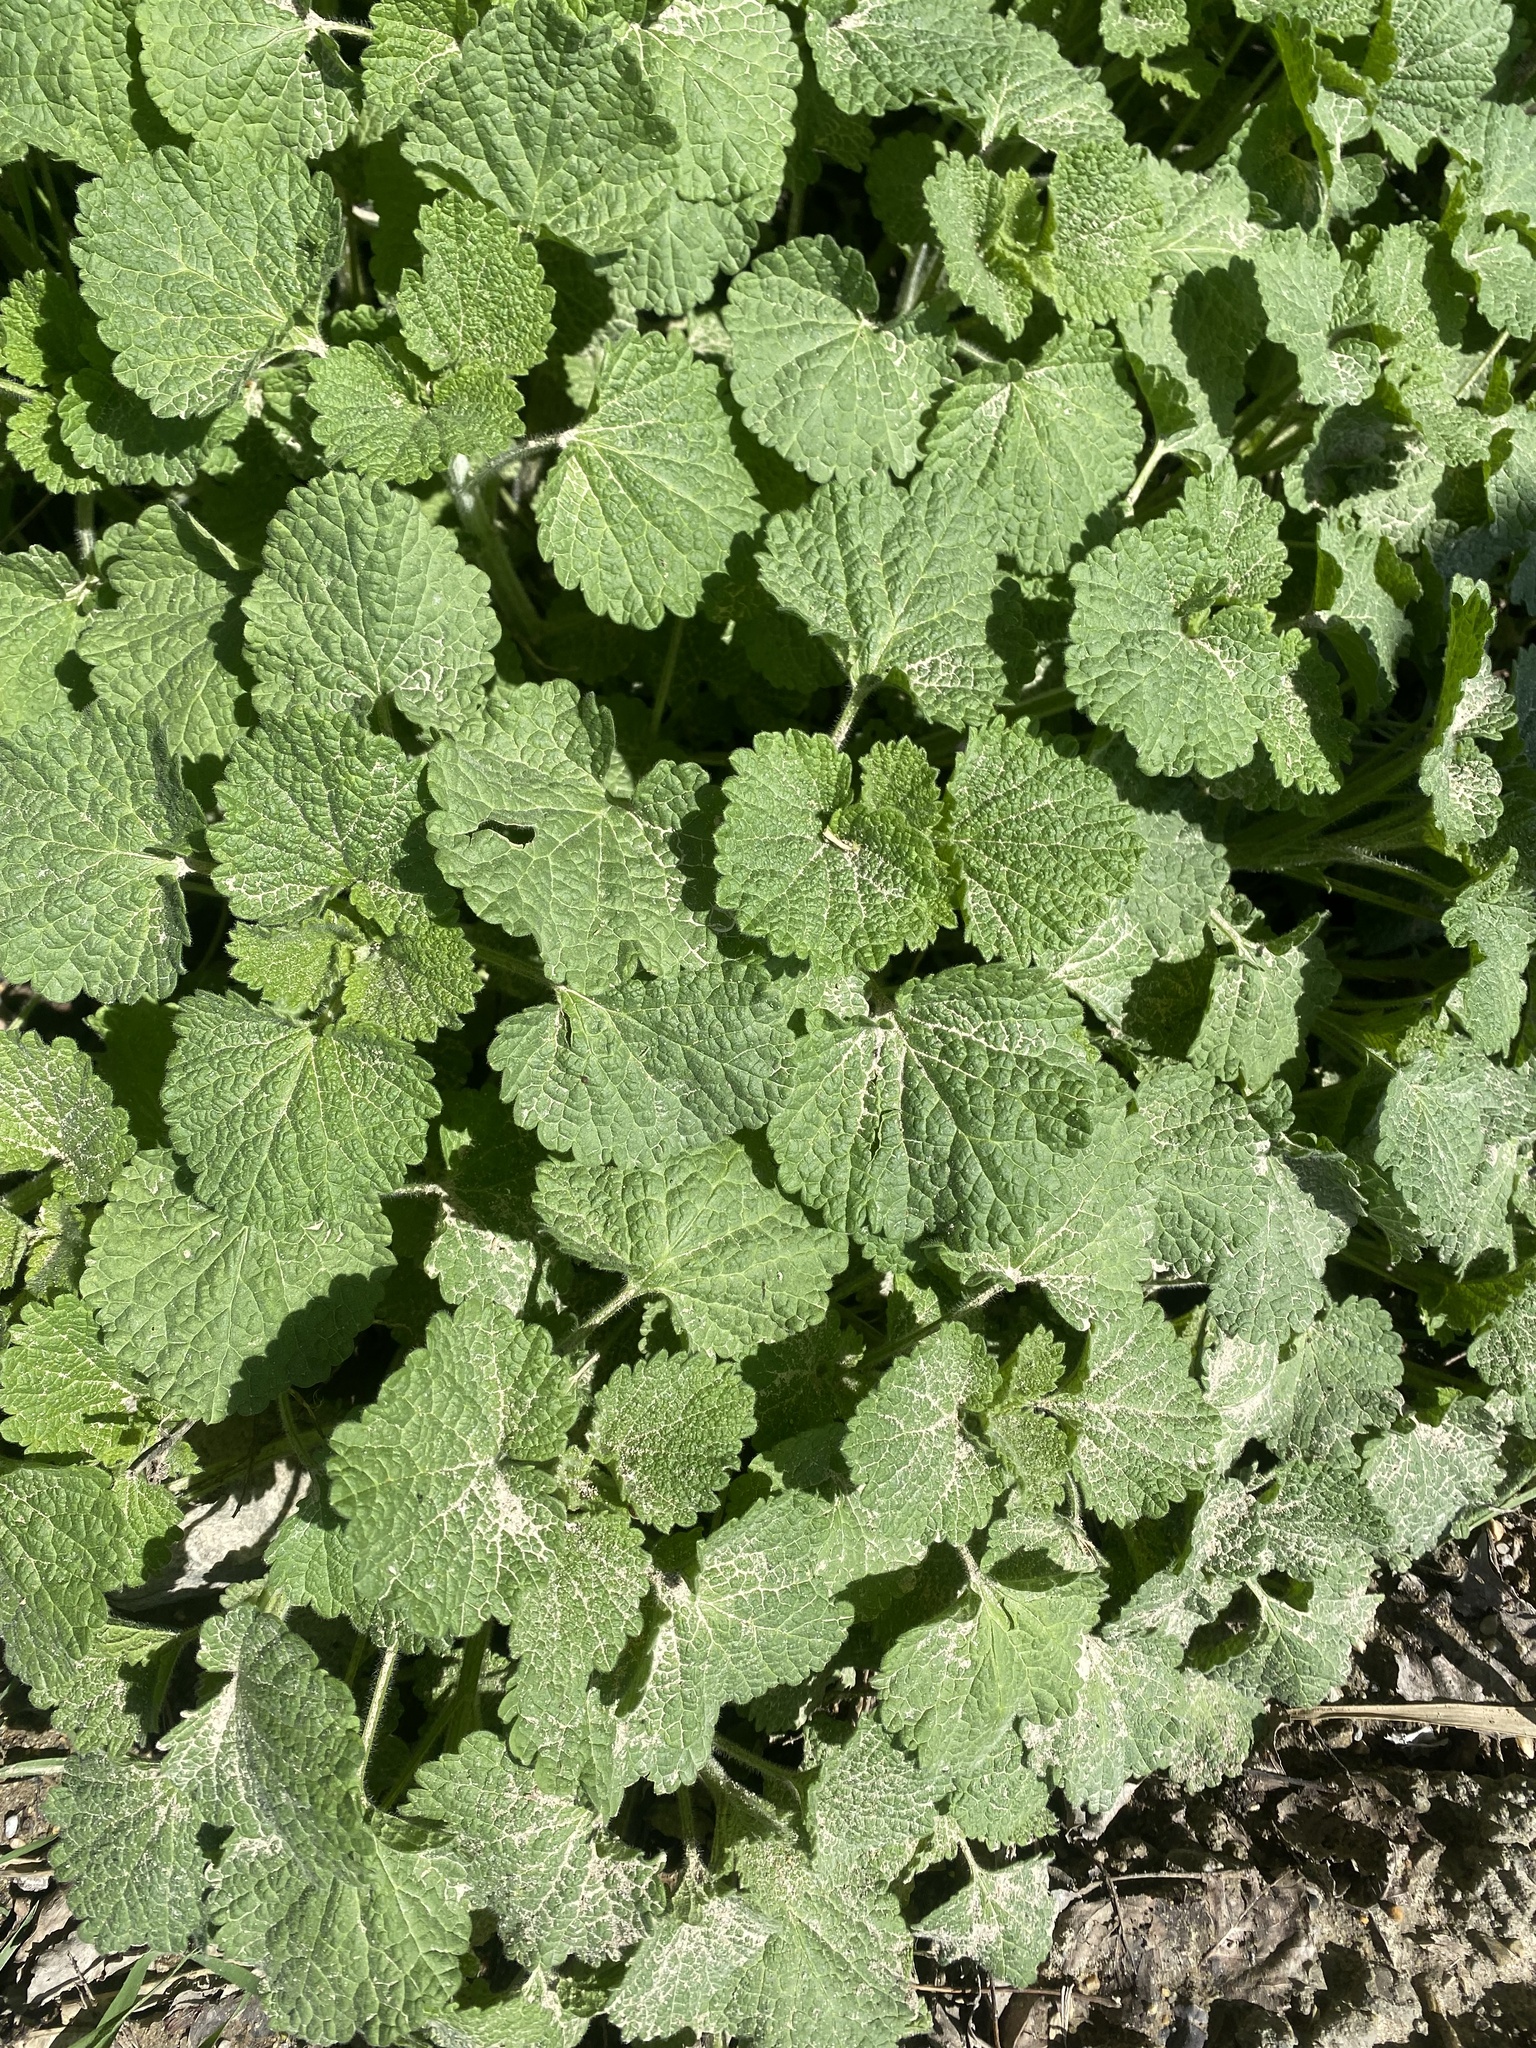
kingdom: Plantae
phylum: Tracheophyta
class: Magnoliopsida
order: Lamiales
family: Lamiaceae
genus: Ballota
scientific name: Ballota nigra
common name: Black horehound
